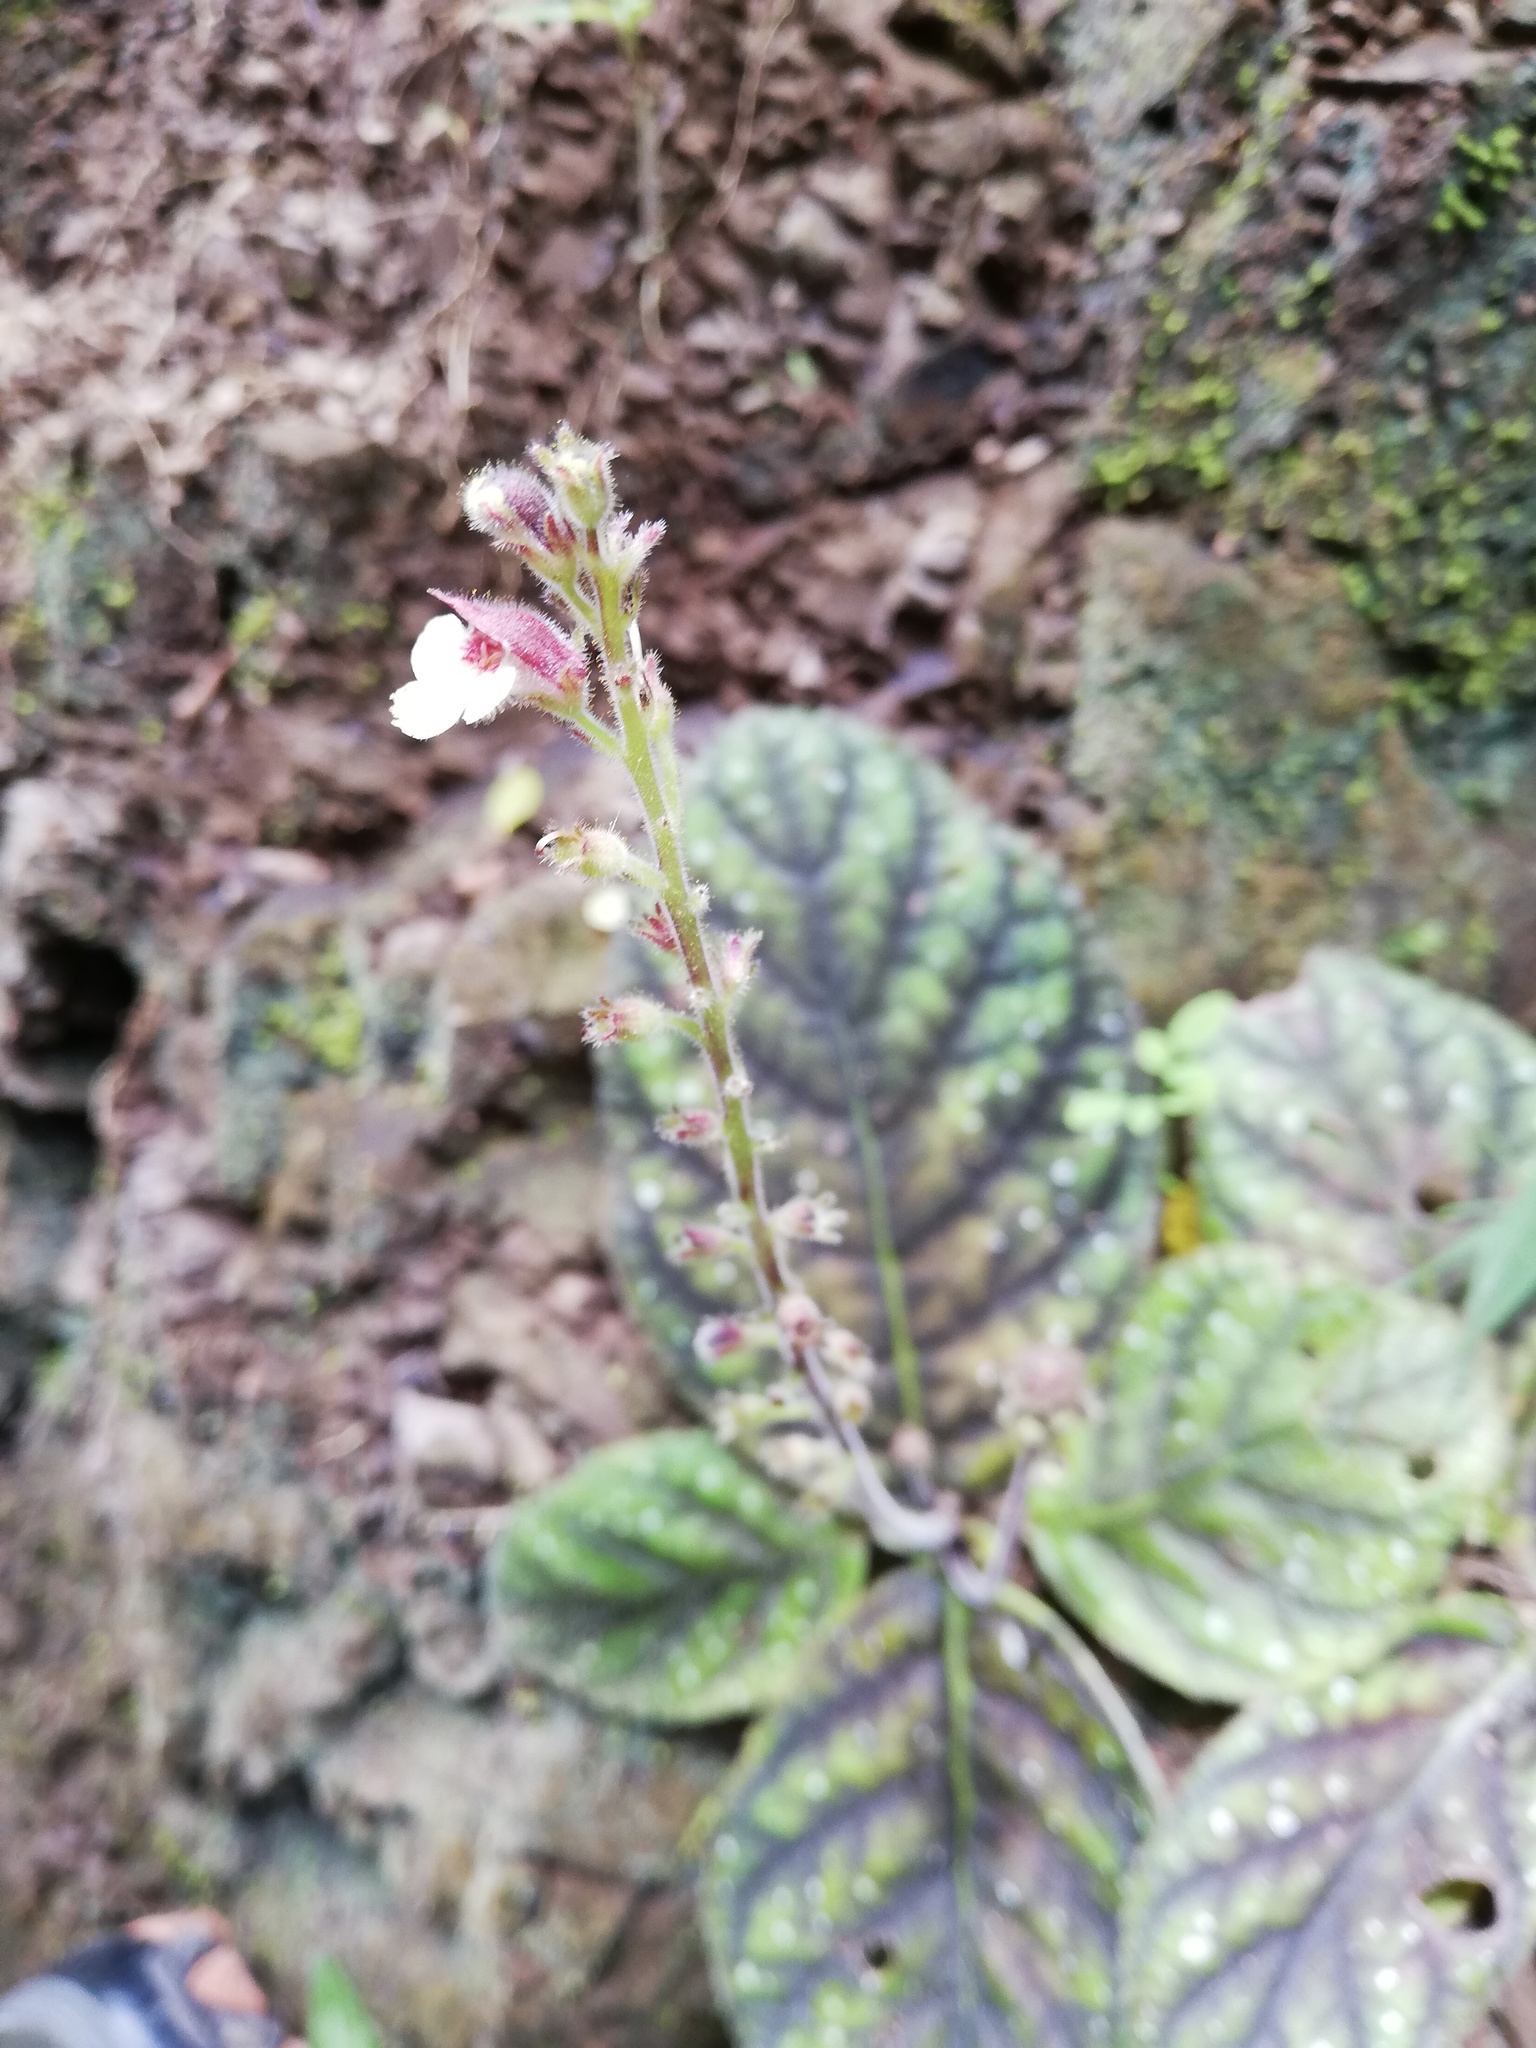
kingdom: Plantae
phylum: Tracheophyta
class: Magnoliopsida
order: Lamiales
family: Gesneriaceae
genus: Gloxinia
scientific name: Gloxinia erinoides
